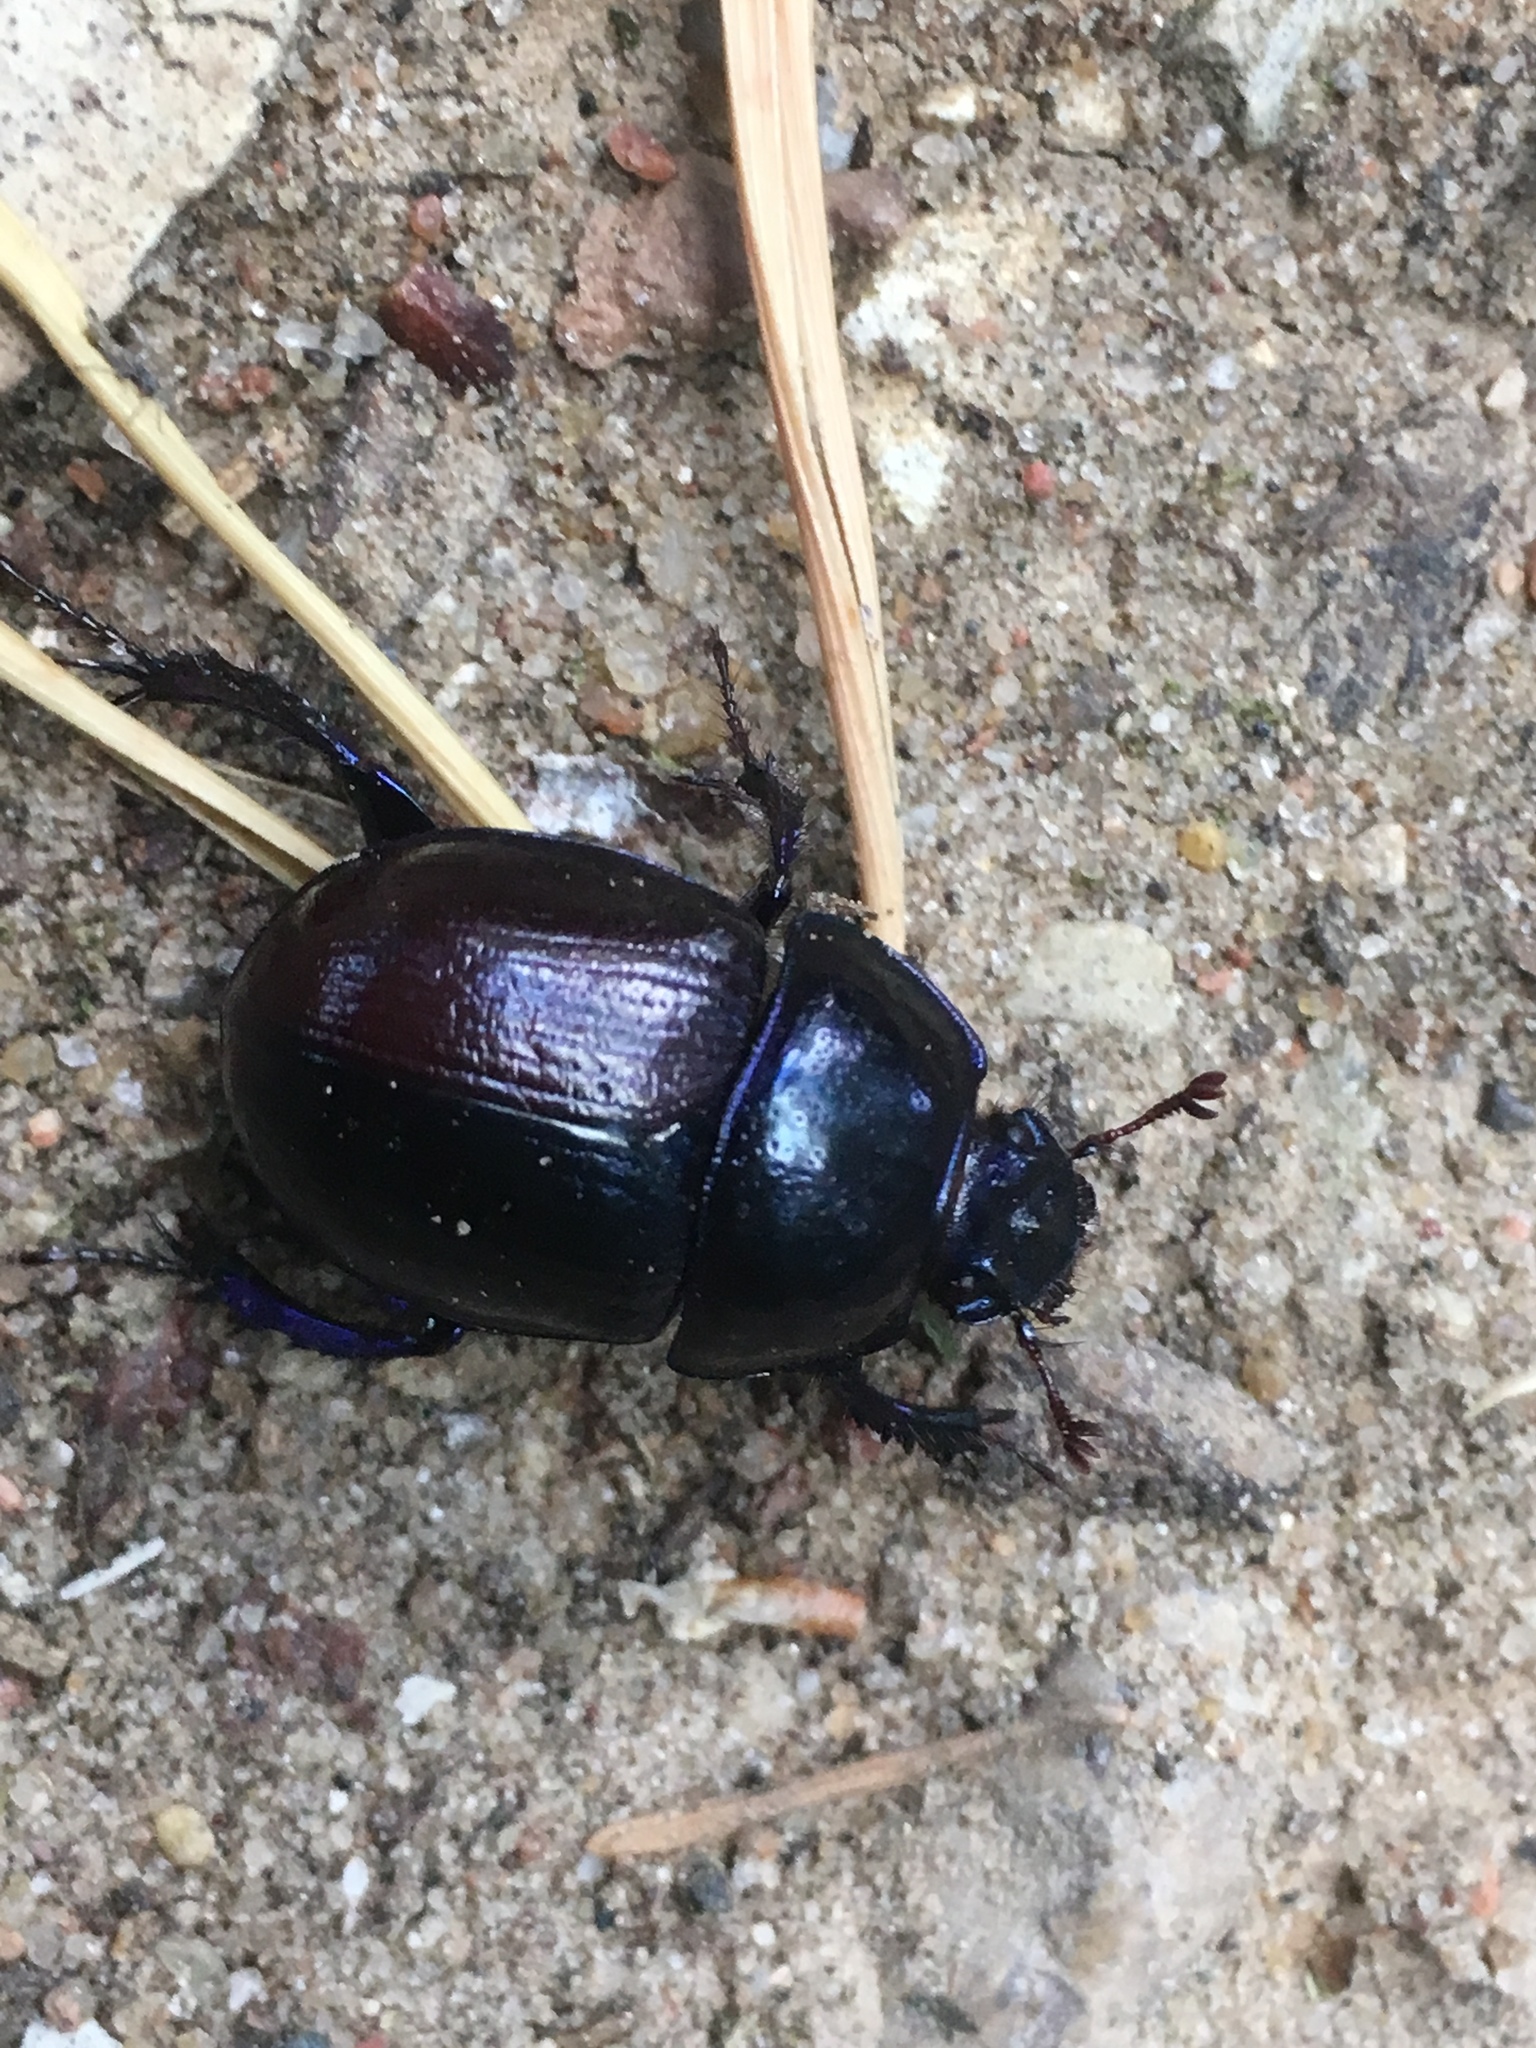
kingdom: Animalia
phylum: Arthropoda
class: Insecta
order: Coleoptera
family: Geotrupidae
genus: Anoplotrupes
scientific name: Anoplotrupes stercorosus
